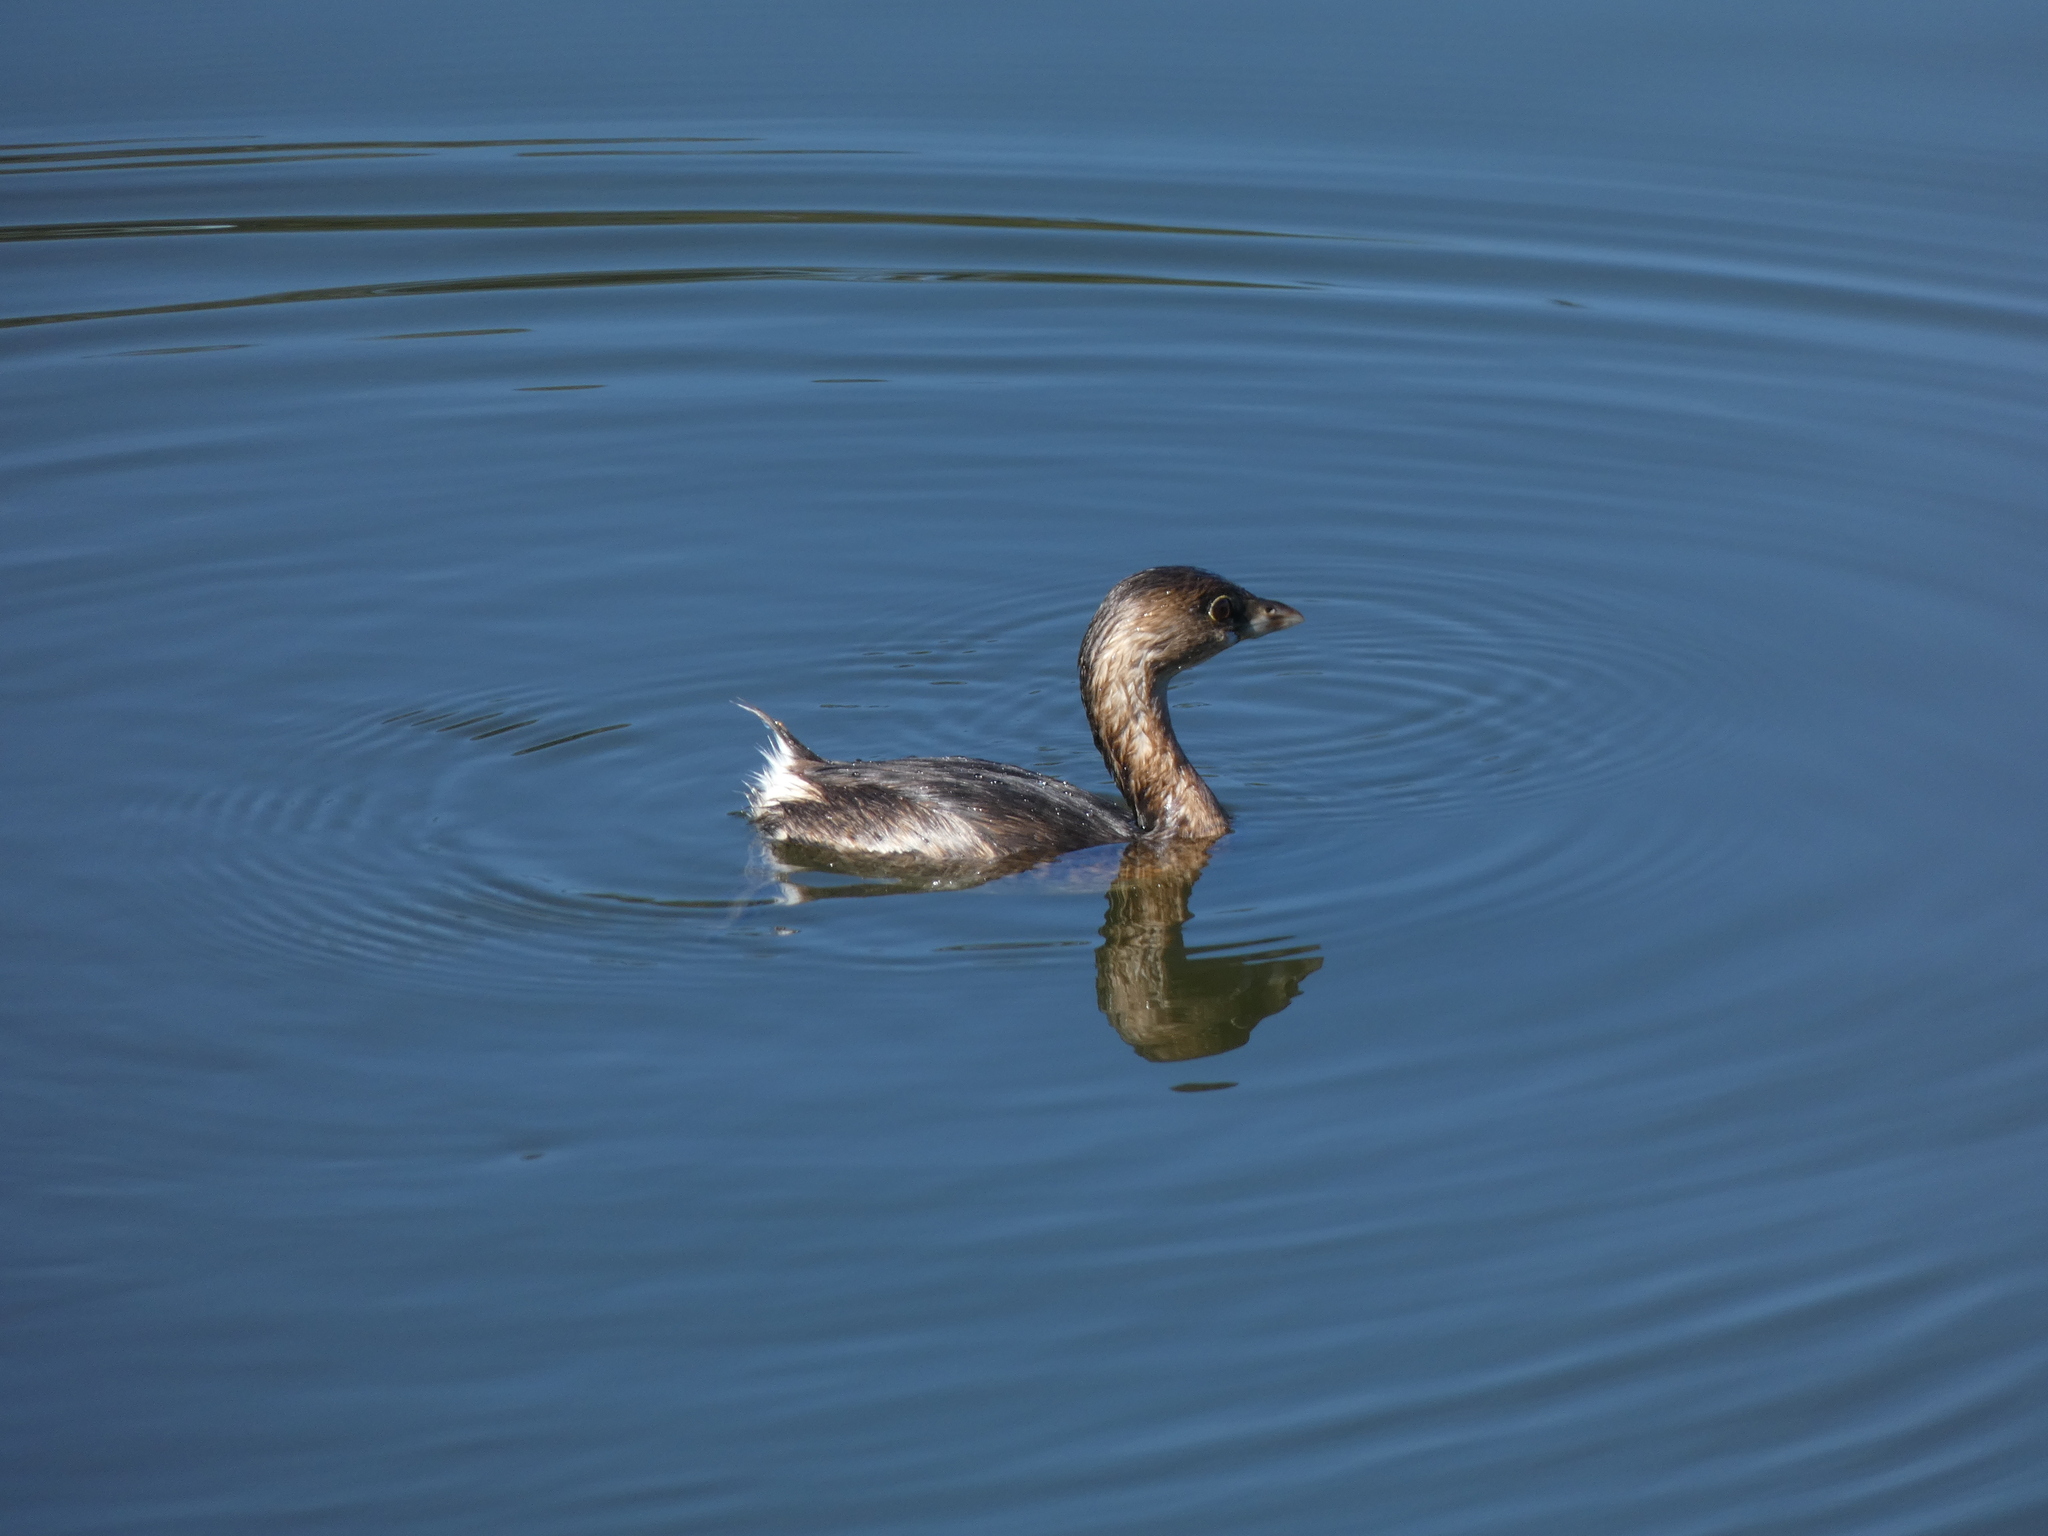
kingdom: Animalia
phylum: Chordata
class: Aves
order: Podicipediformes
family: Podicipedidae
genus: Podilymbus
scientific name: Podilymbus podiceps
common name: Pied-billed grebe
